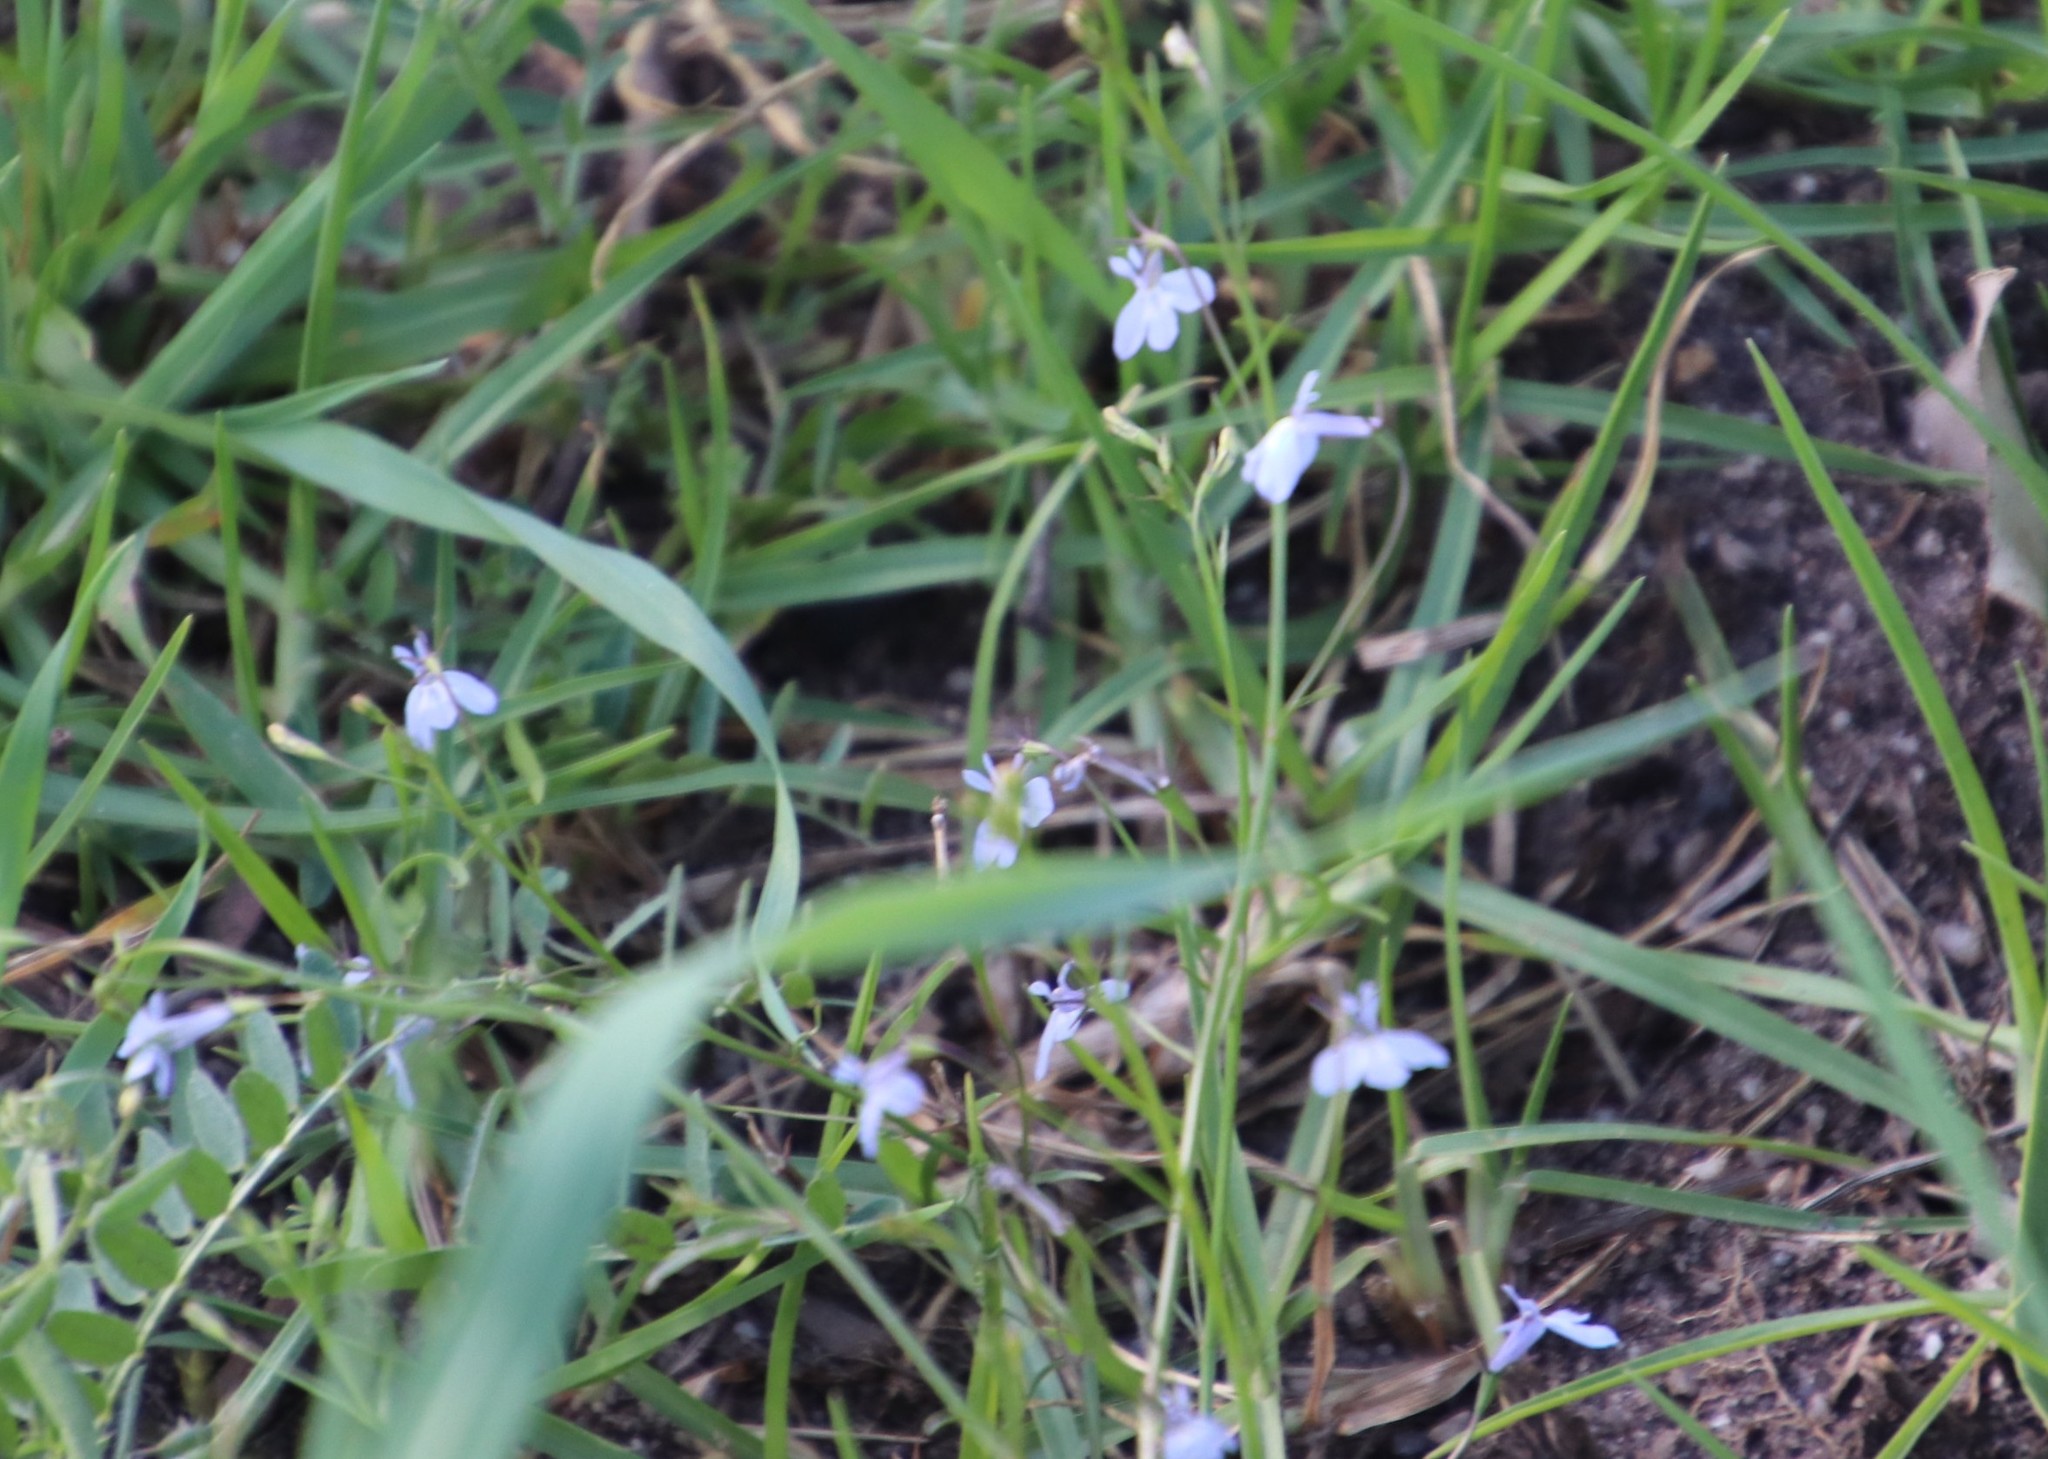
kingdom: Plantae
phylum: Tracheophyta
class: Magnoliopsida
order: Asterales
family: Campanulaceae
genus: Lobelia
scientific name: Lobelia erinus
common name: Edging lobelia
